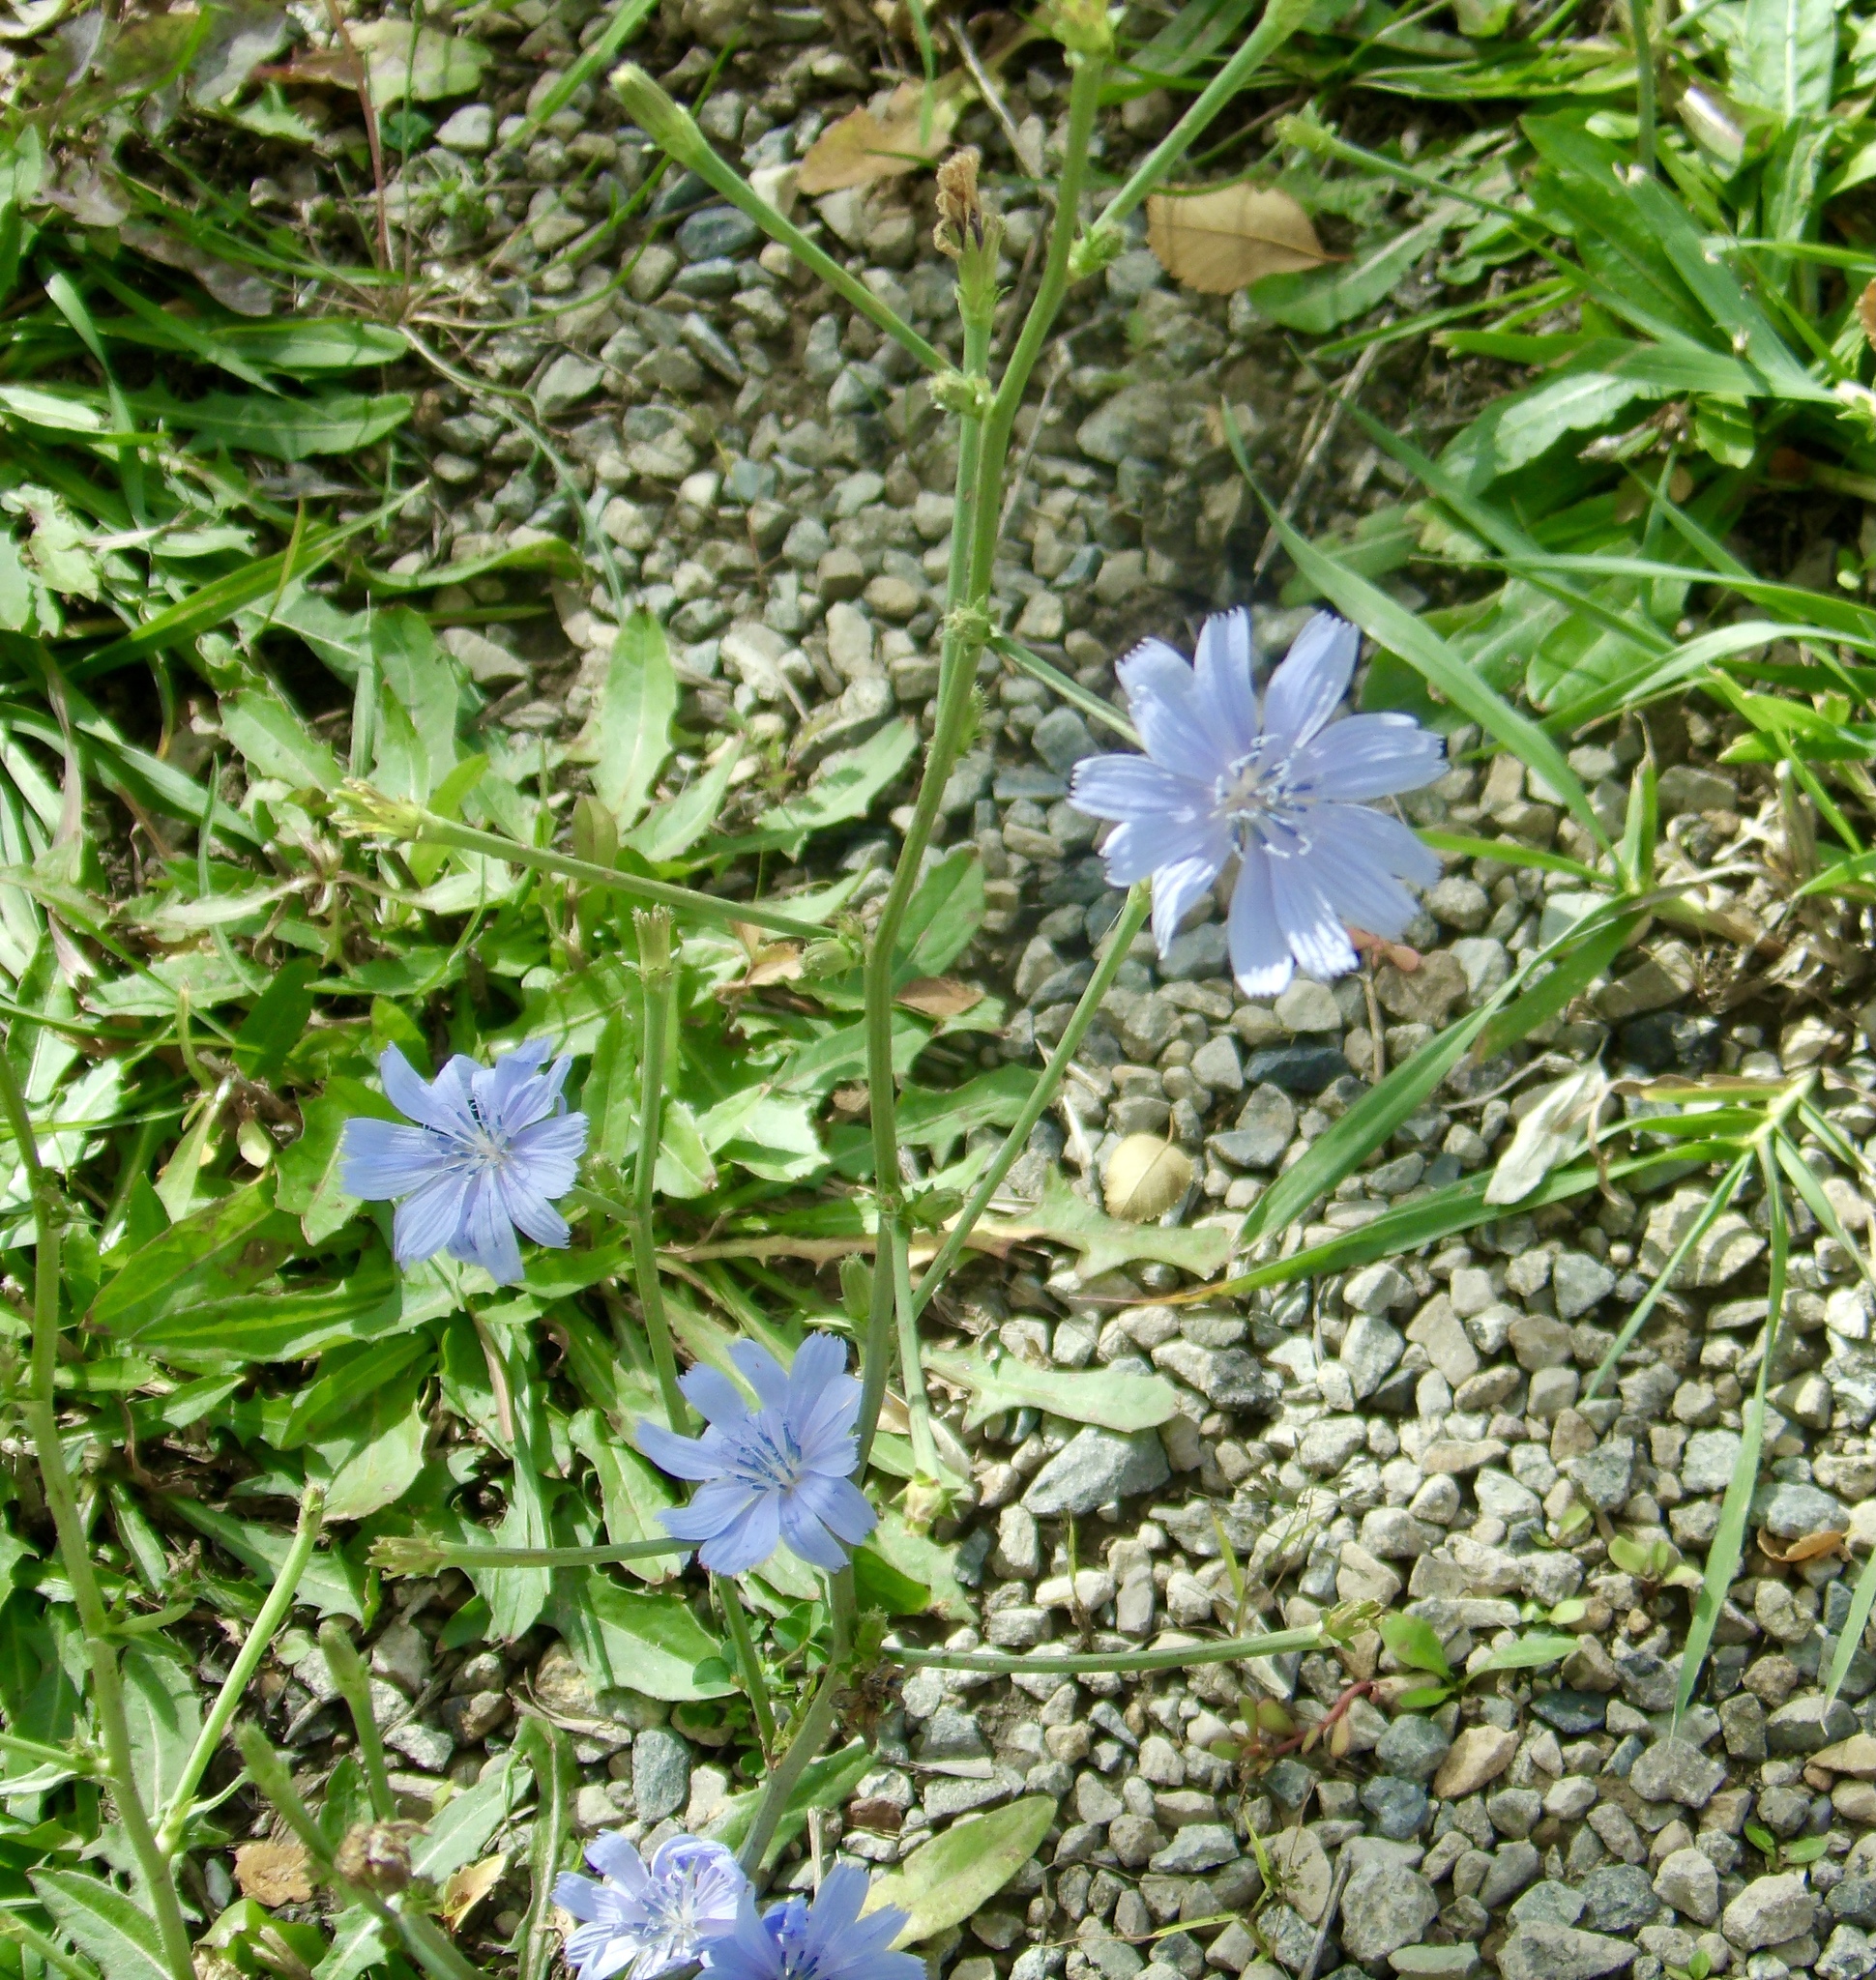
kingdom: Plantae
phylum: Tracheophyta
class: Magnoliopsida
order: Asterales
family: Asteraceae
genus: Cichorium
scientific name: Cichorium intybus
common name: Chicory
